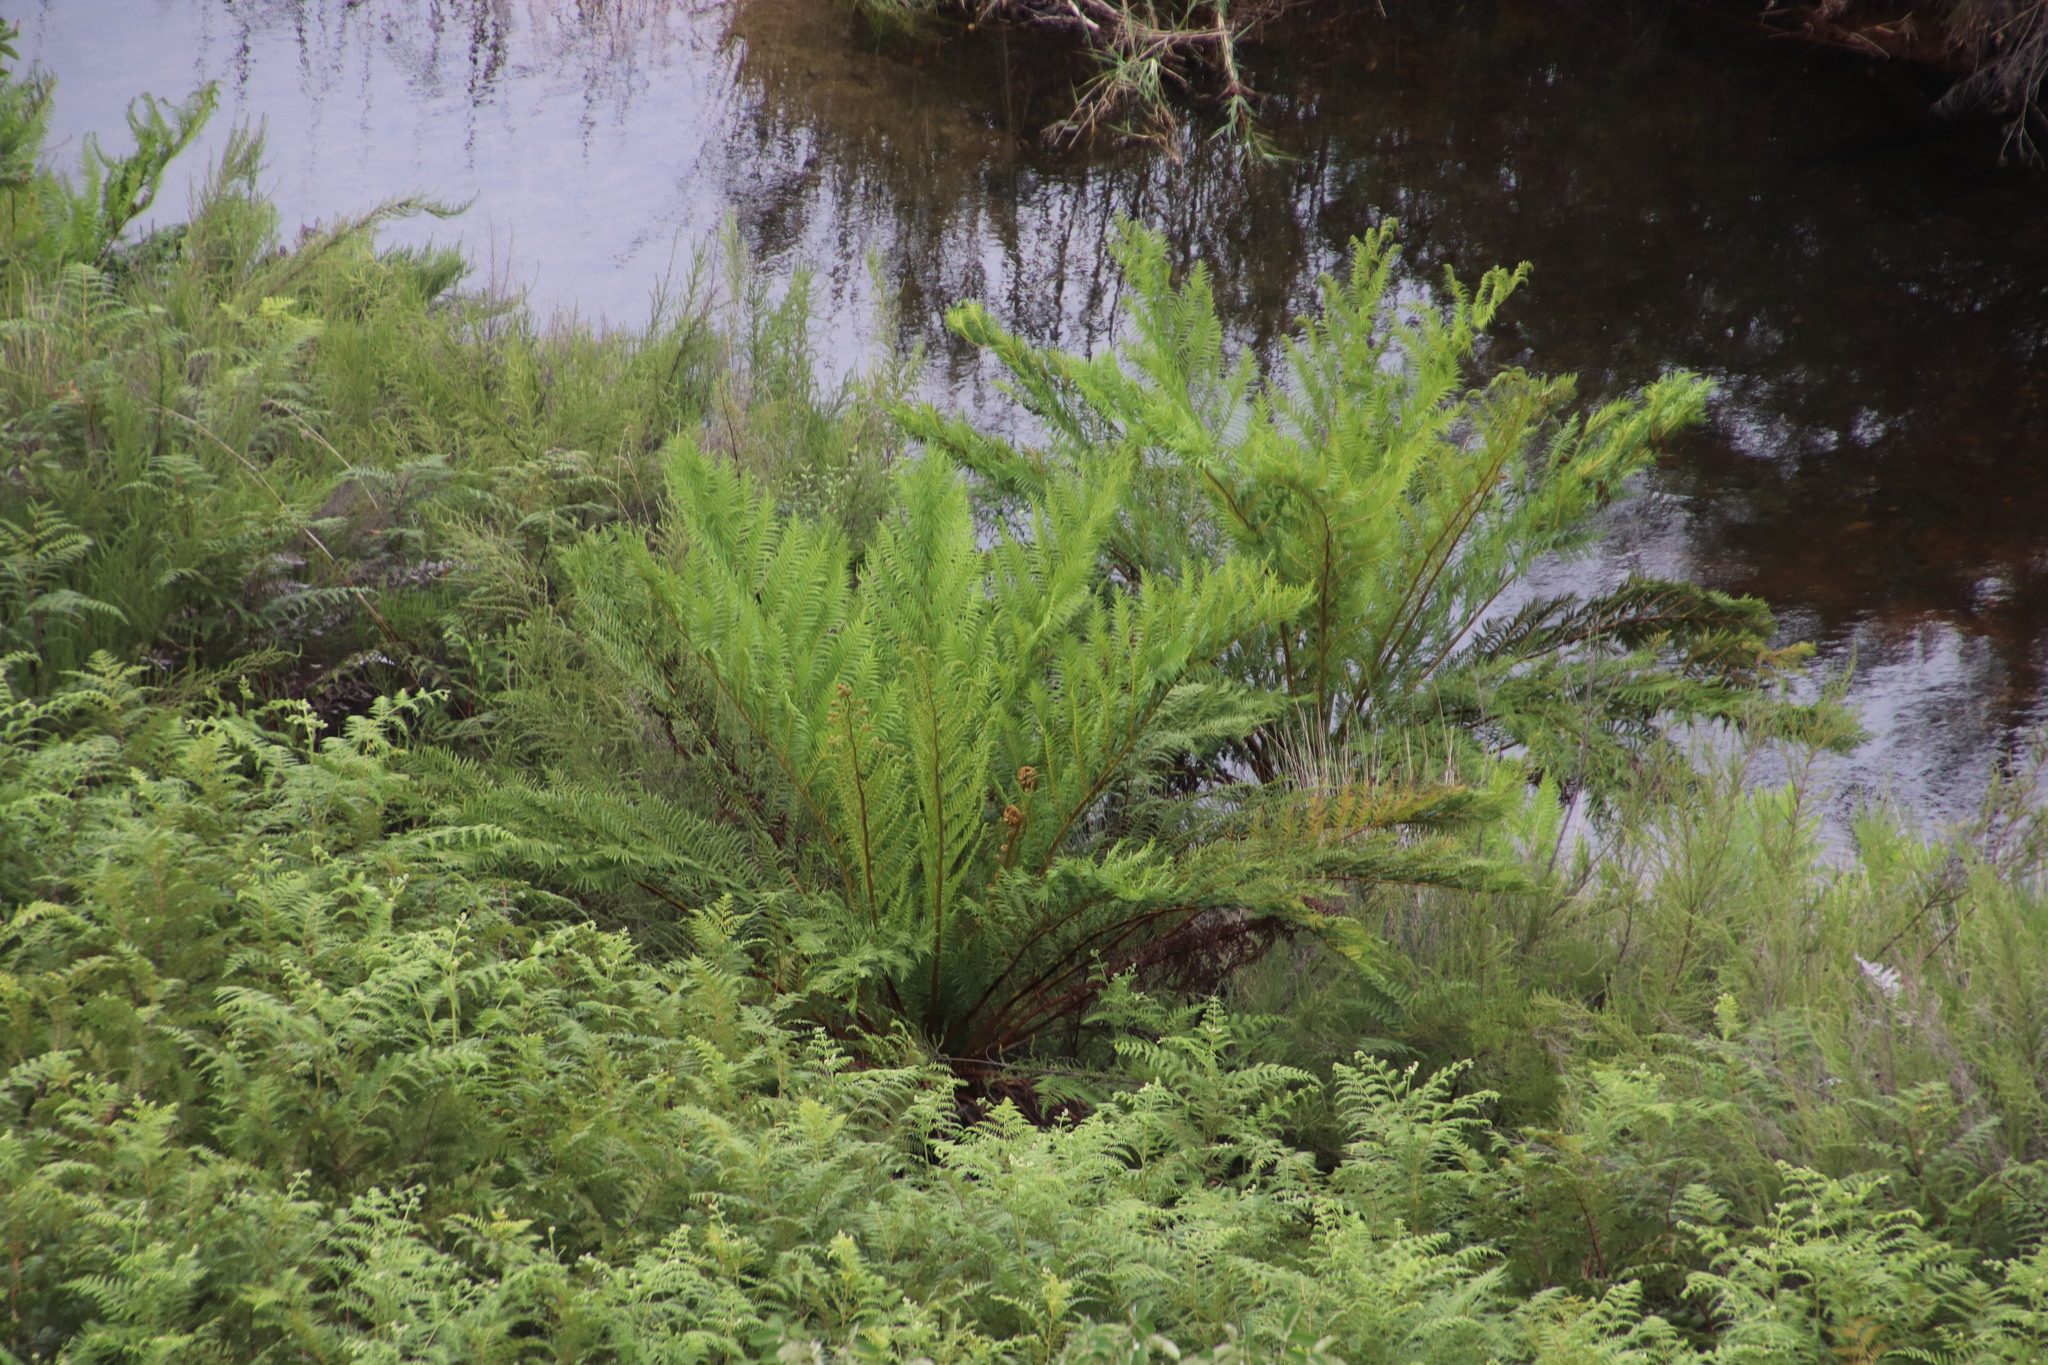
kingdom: Plantae
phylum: Tracheophyta
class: Polypodiopsida
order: Cyatheales
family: Cyatheaceae
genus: Alsophila
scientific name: Alsophila dregei
